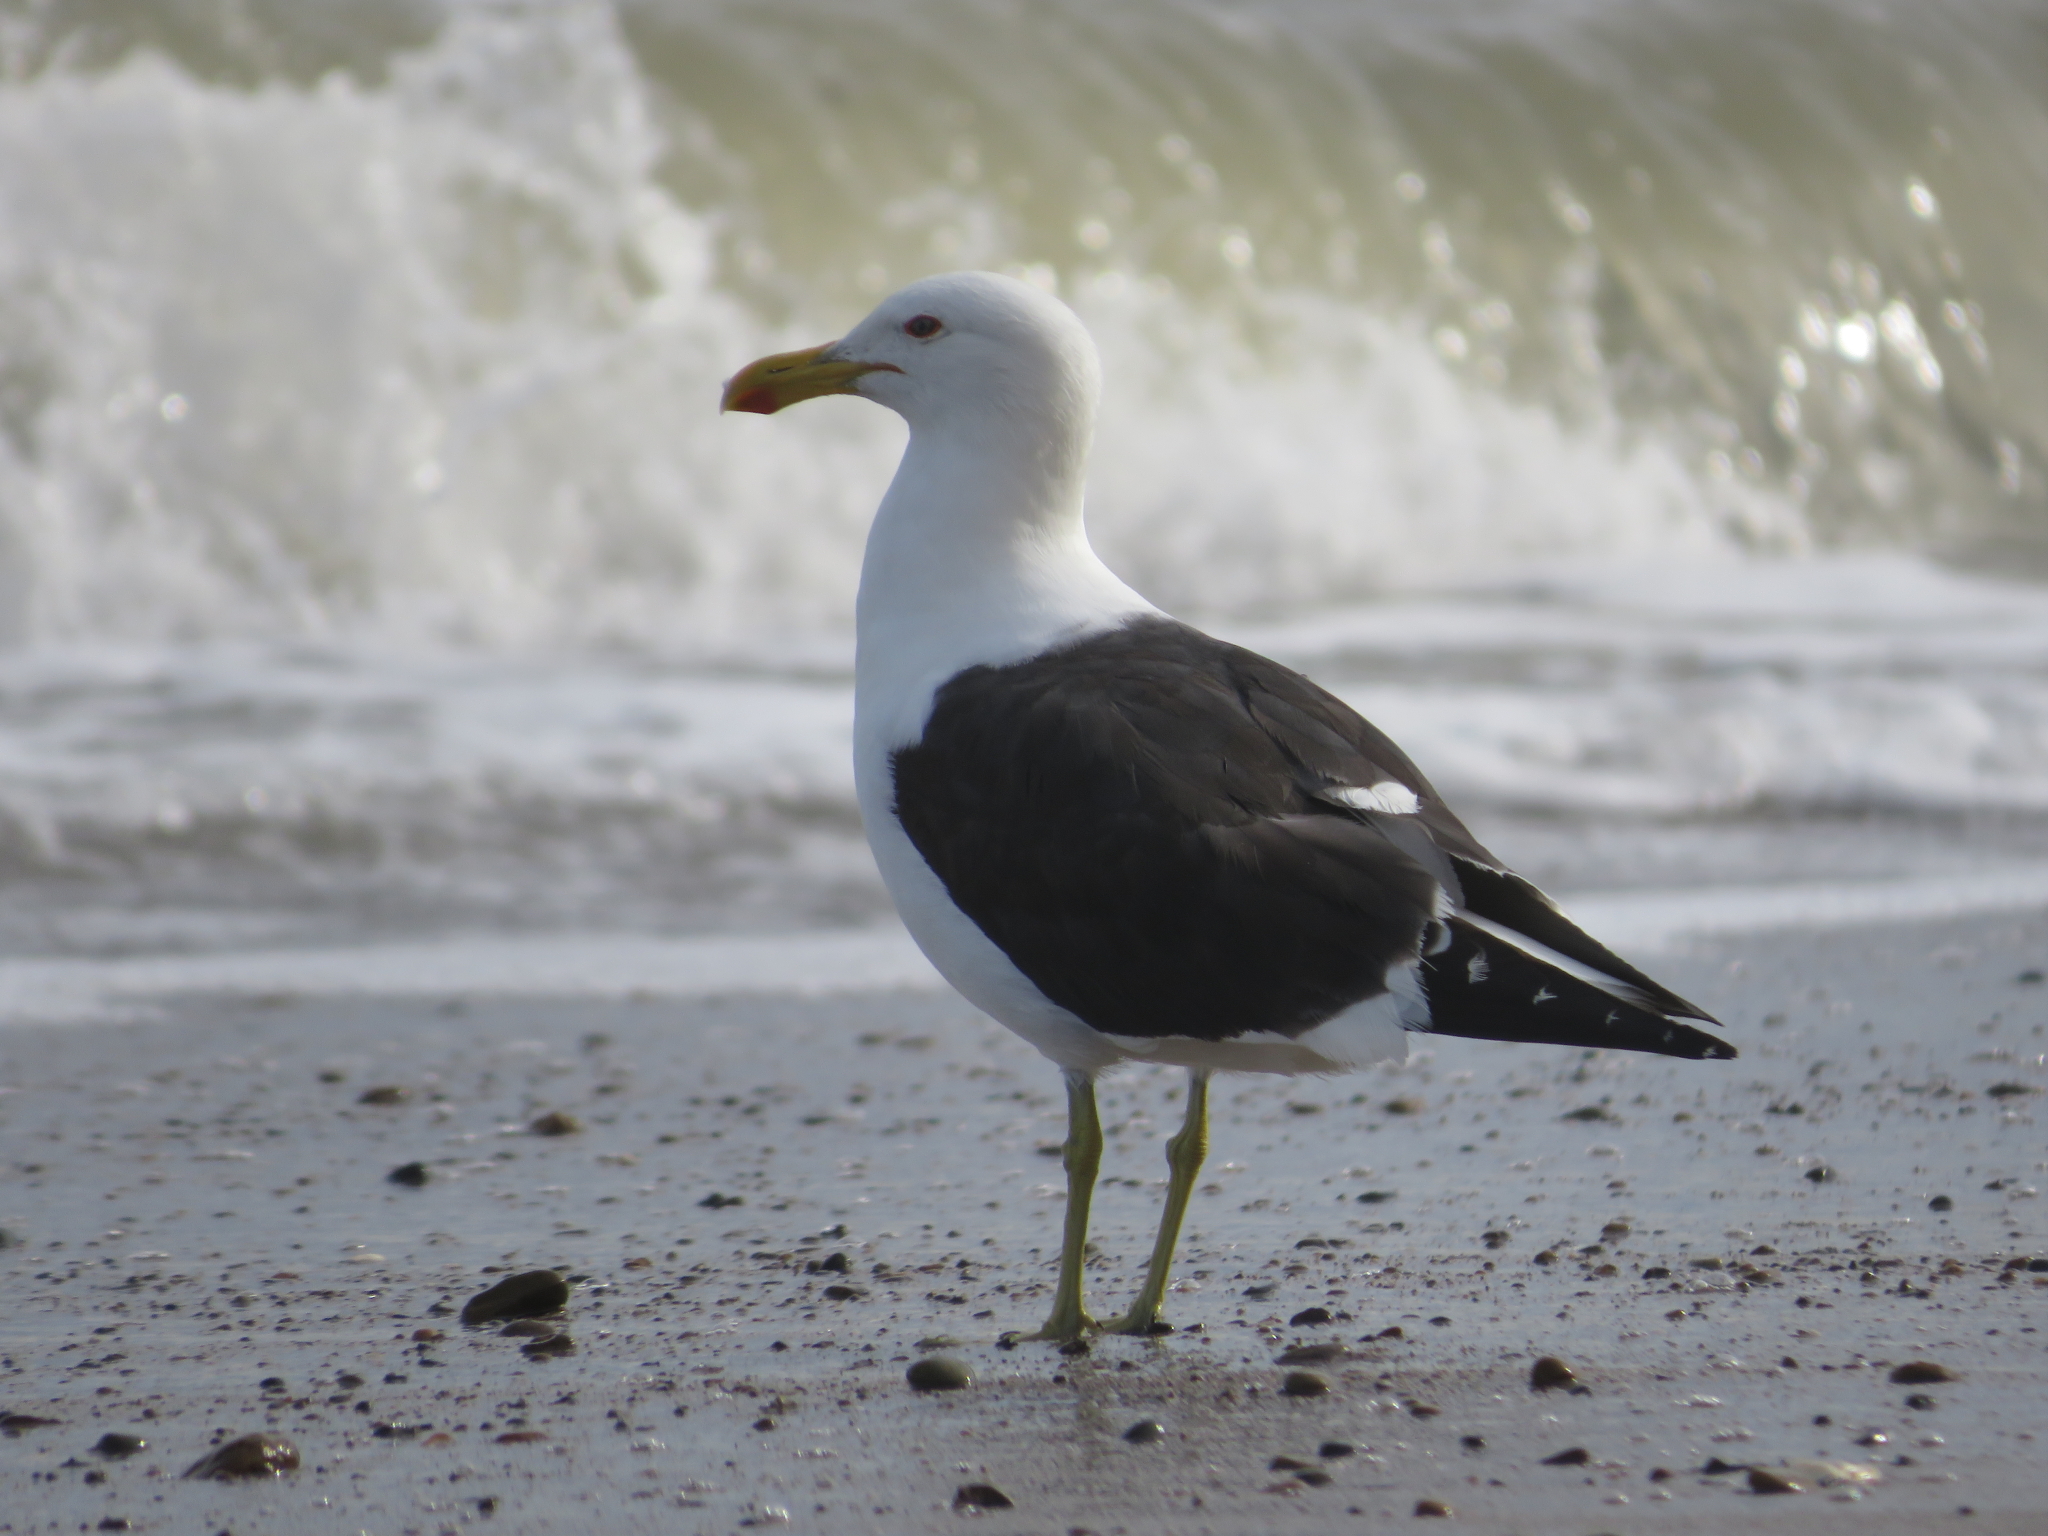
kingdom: Animalia
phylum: Chordata
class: Aves
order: Charadriiformes
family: Laridae
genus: Larus
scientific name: Larus dominicanus
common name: Kelp gull
